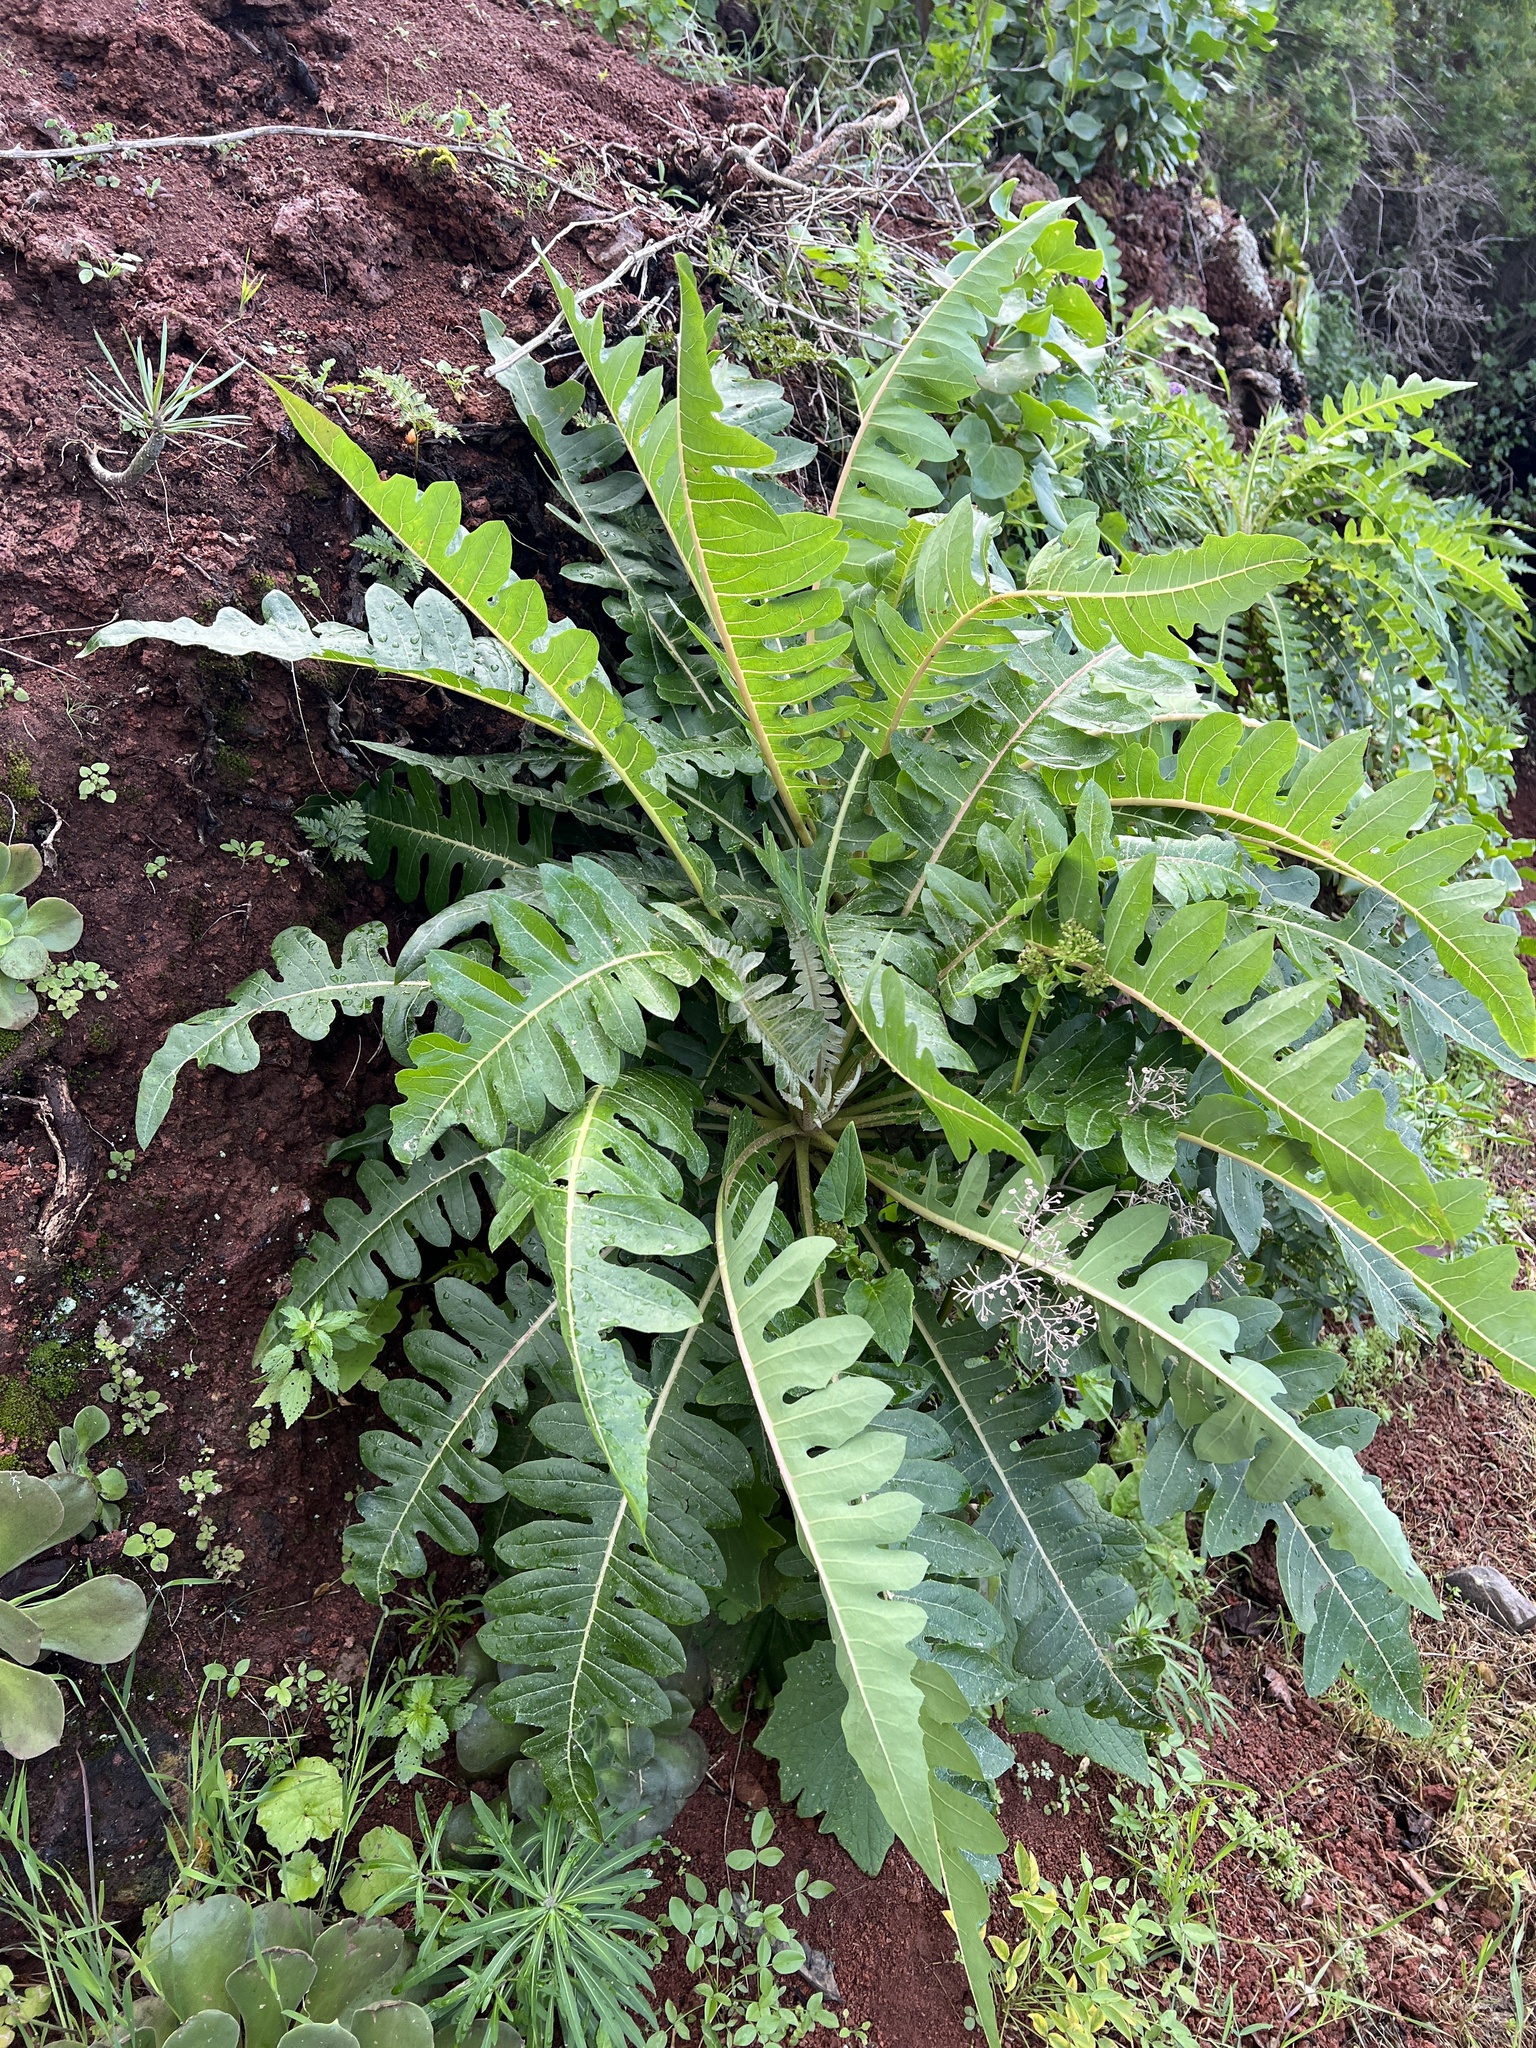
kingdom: Plantae
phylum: Tracheophyta
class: Magnoliopsida
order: Asterales
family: Asteraceae
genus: Sonchus
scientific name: Sonchus hierrensis
